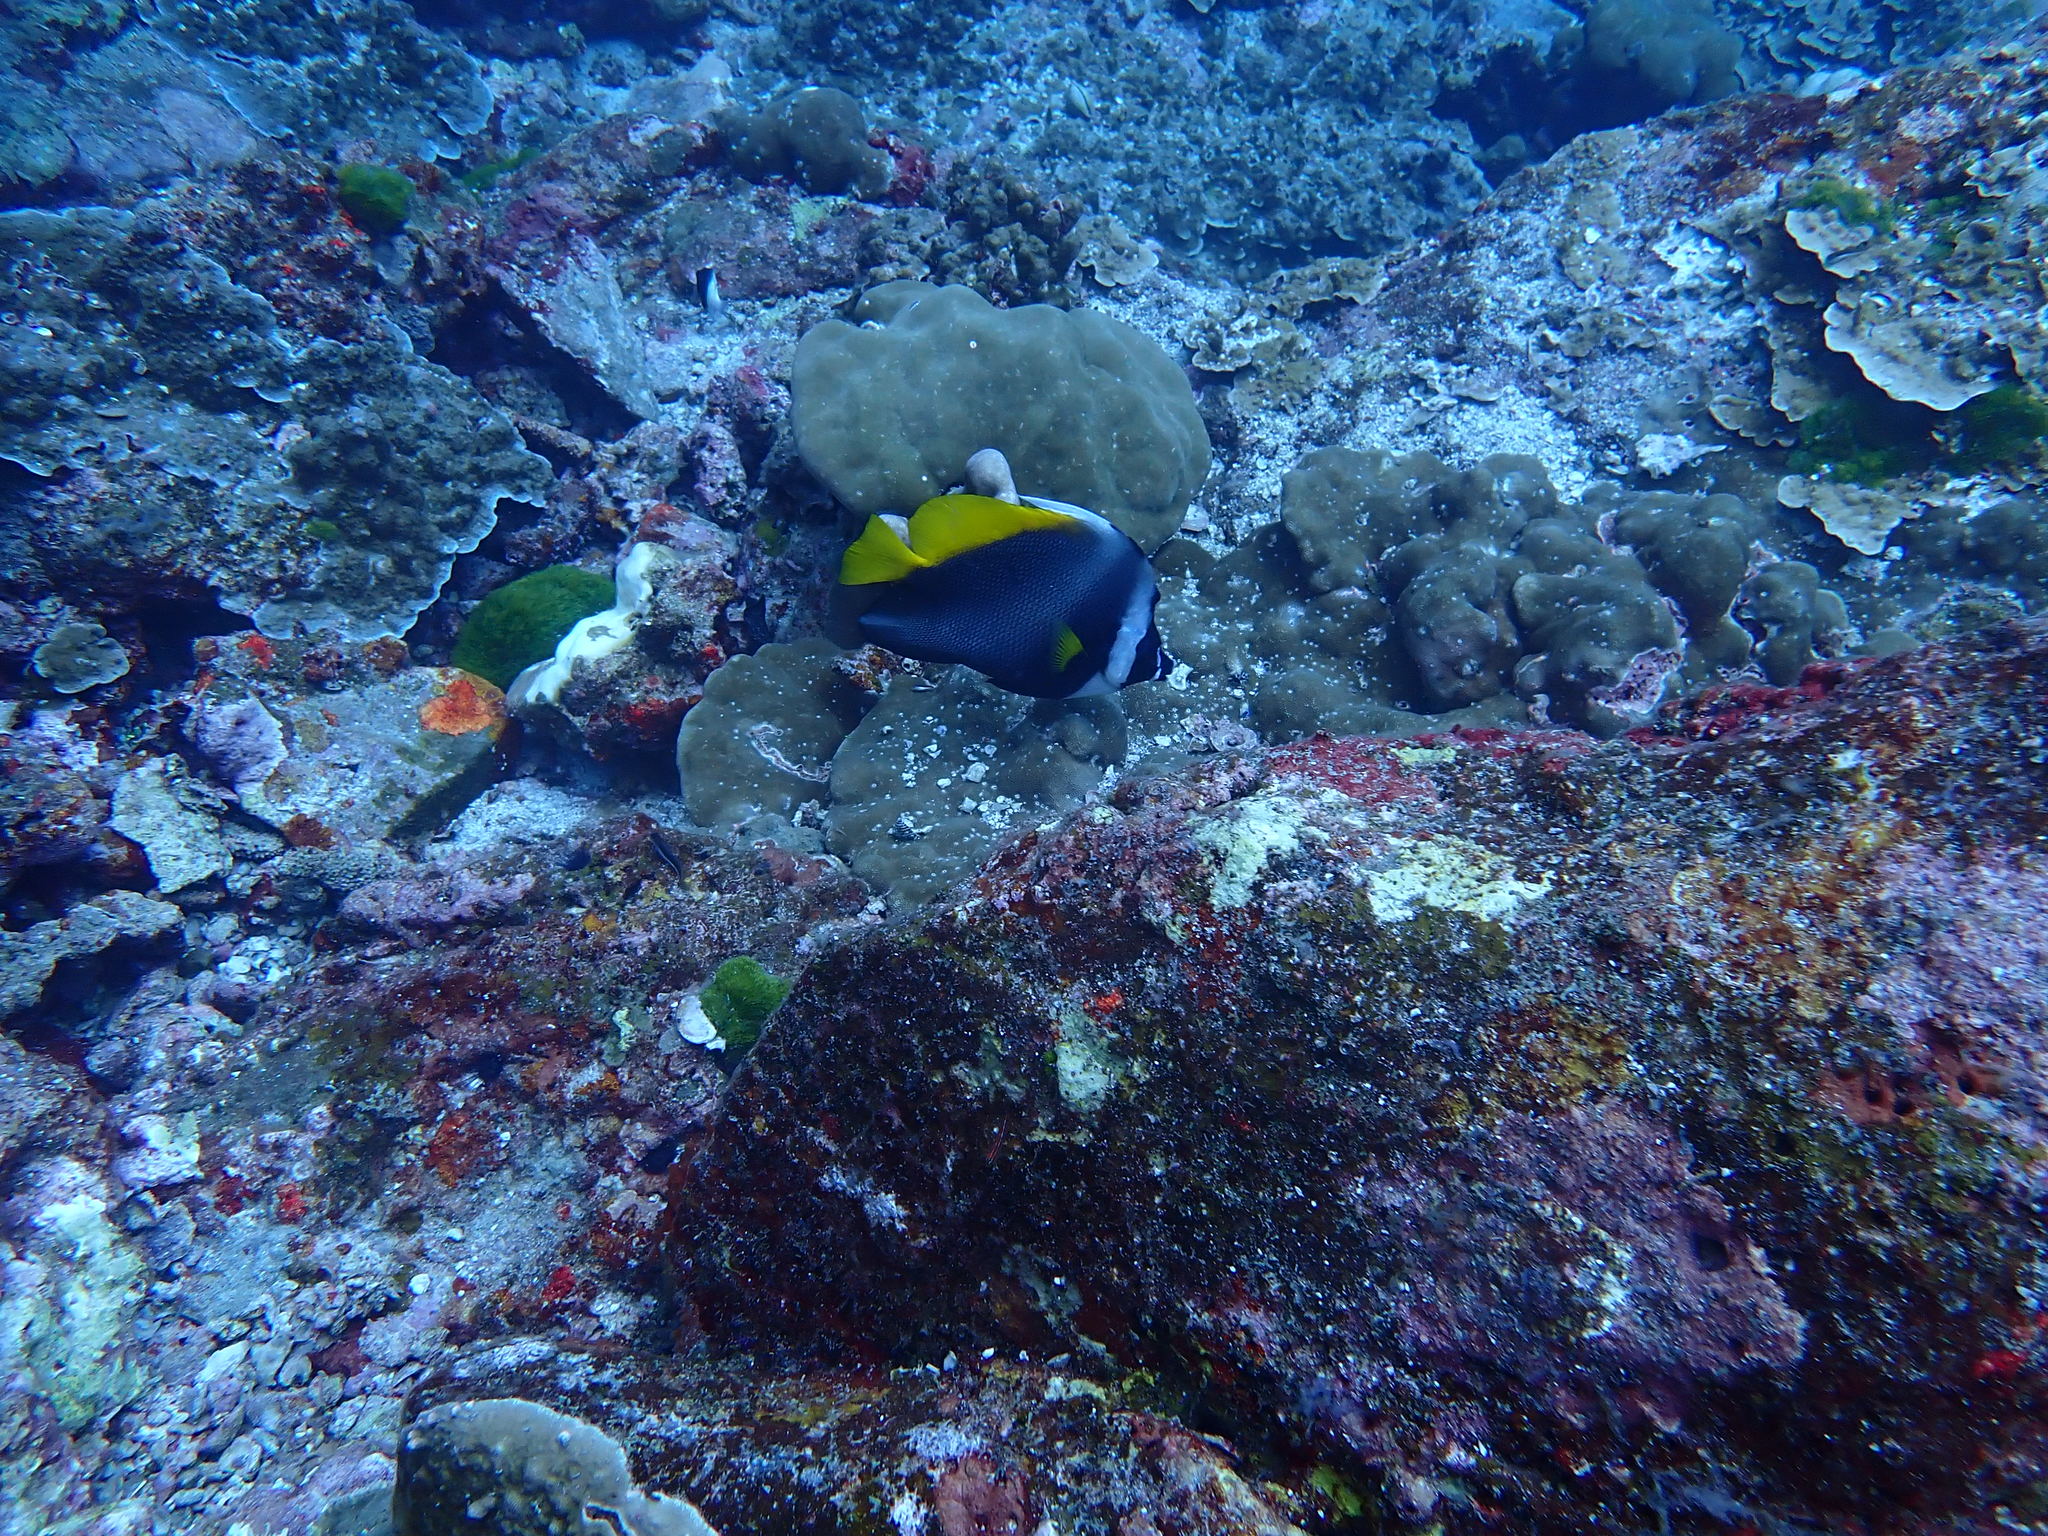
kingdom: Animalia
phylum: Chordata
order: Perciformes
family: Chaetodontidae
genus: Heniochus
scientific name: Heniochus singularius
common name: Singular bannerfish
